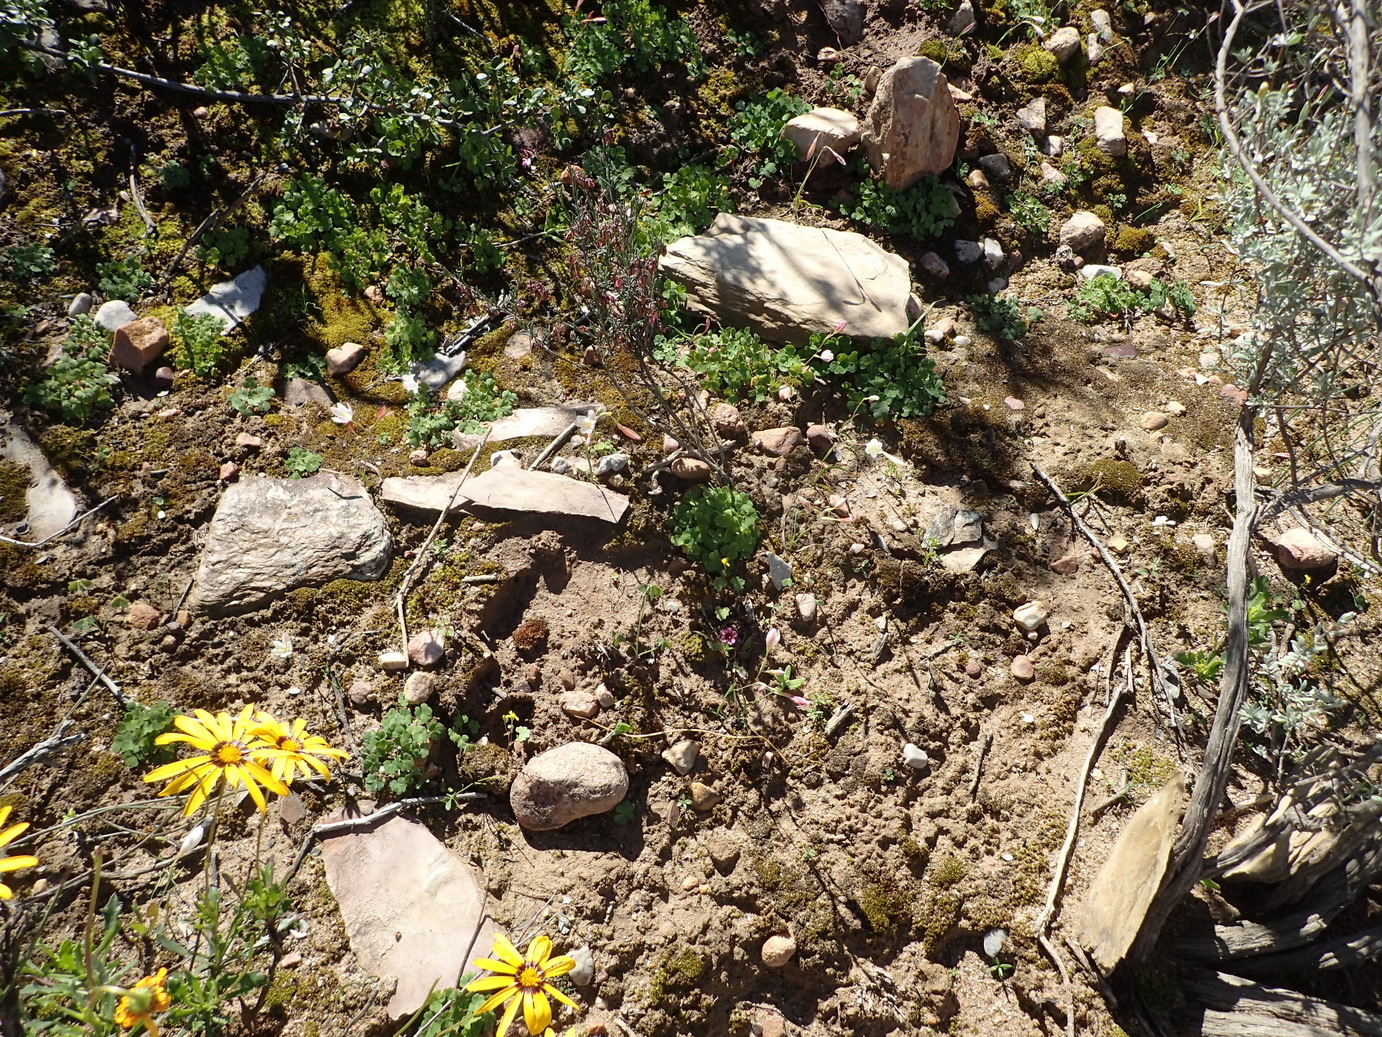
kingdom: Plantae
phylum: Tracheophyta
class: Liliopsida
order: Asparagales
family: Iridaceae
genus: Geissorhiza
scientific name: Geissorhiza inconspicua
